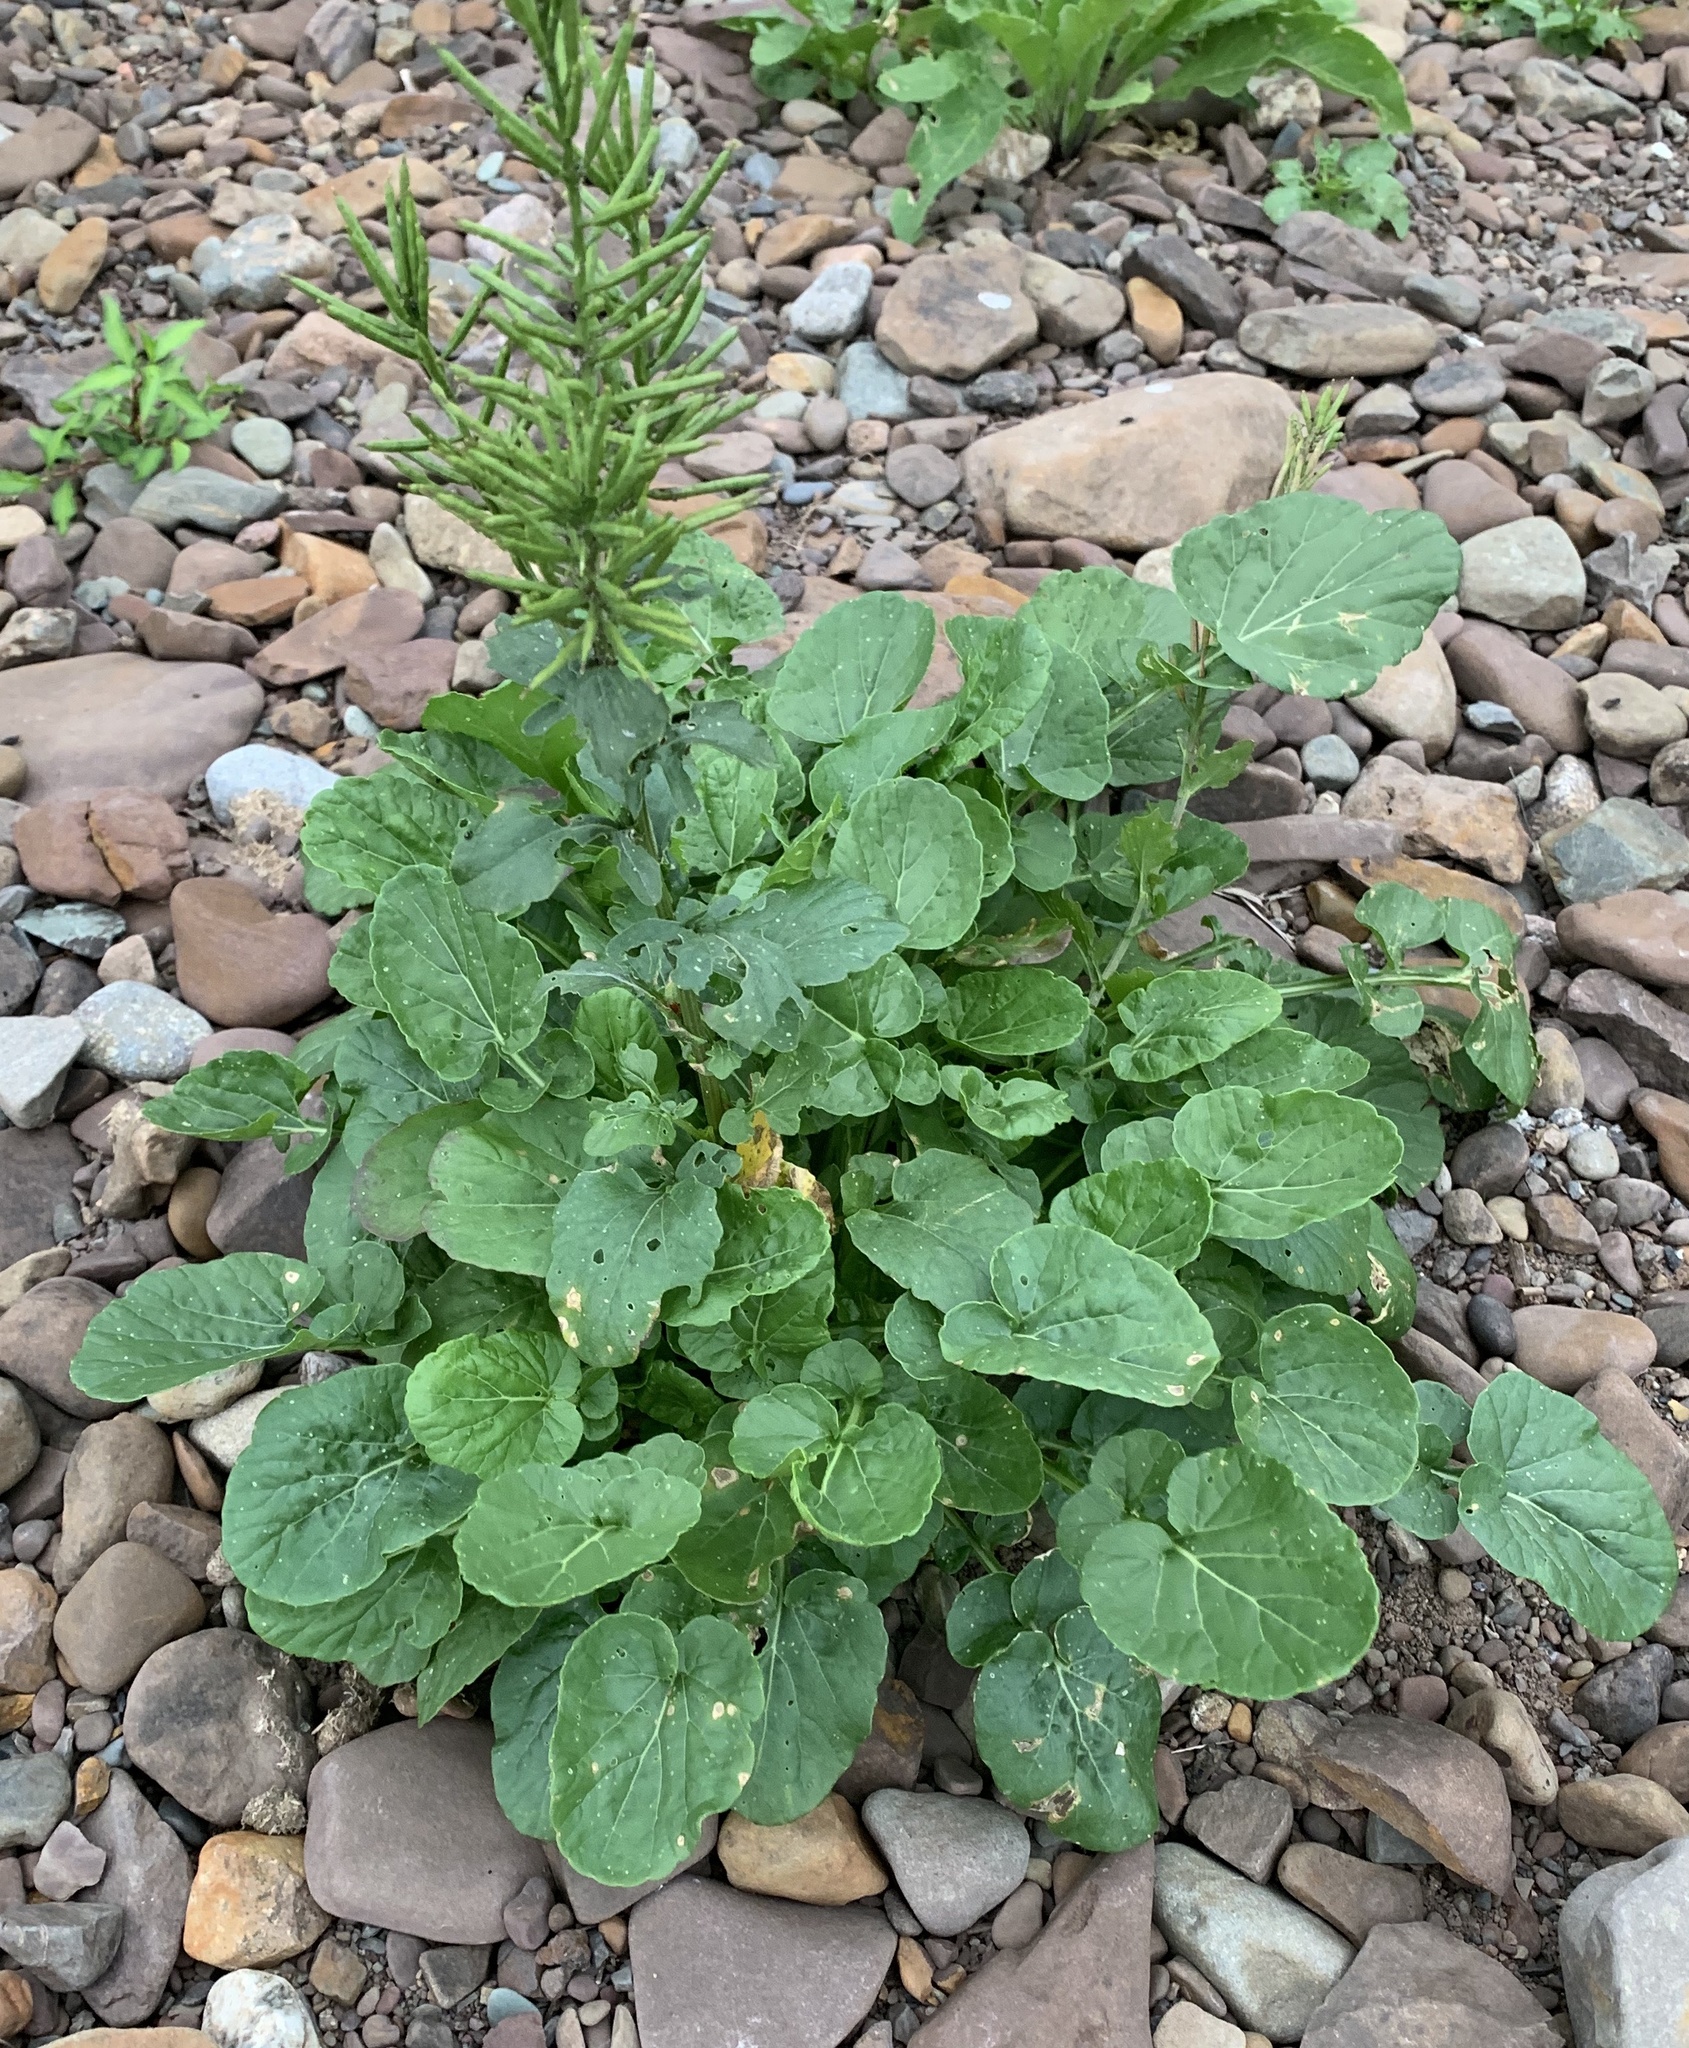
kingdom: Plantae
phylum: Tracheophyta
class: Magnoliopsida
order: Brassicales
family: Brassicaceae
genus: Barbarea
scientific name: Barbarea vulgaris
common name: Cressy-greens
